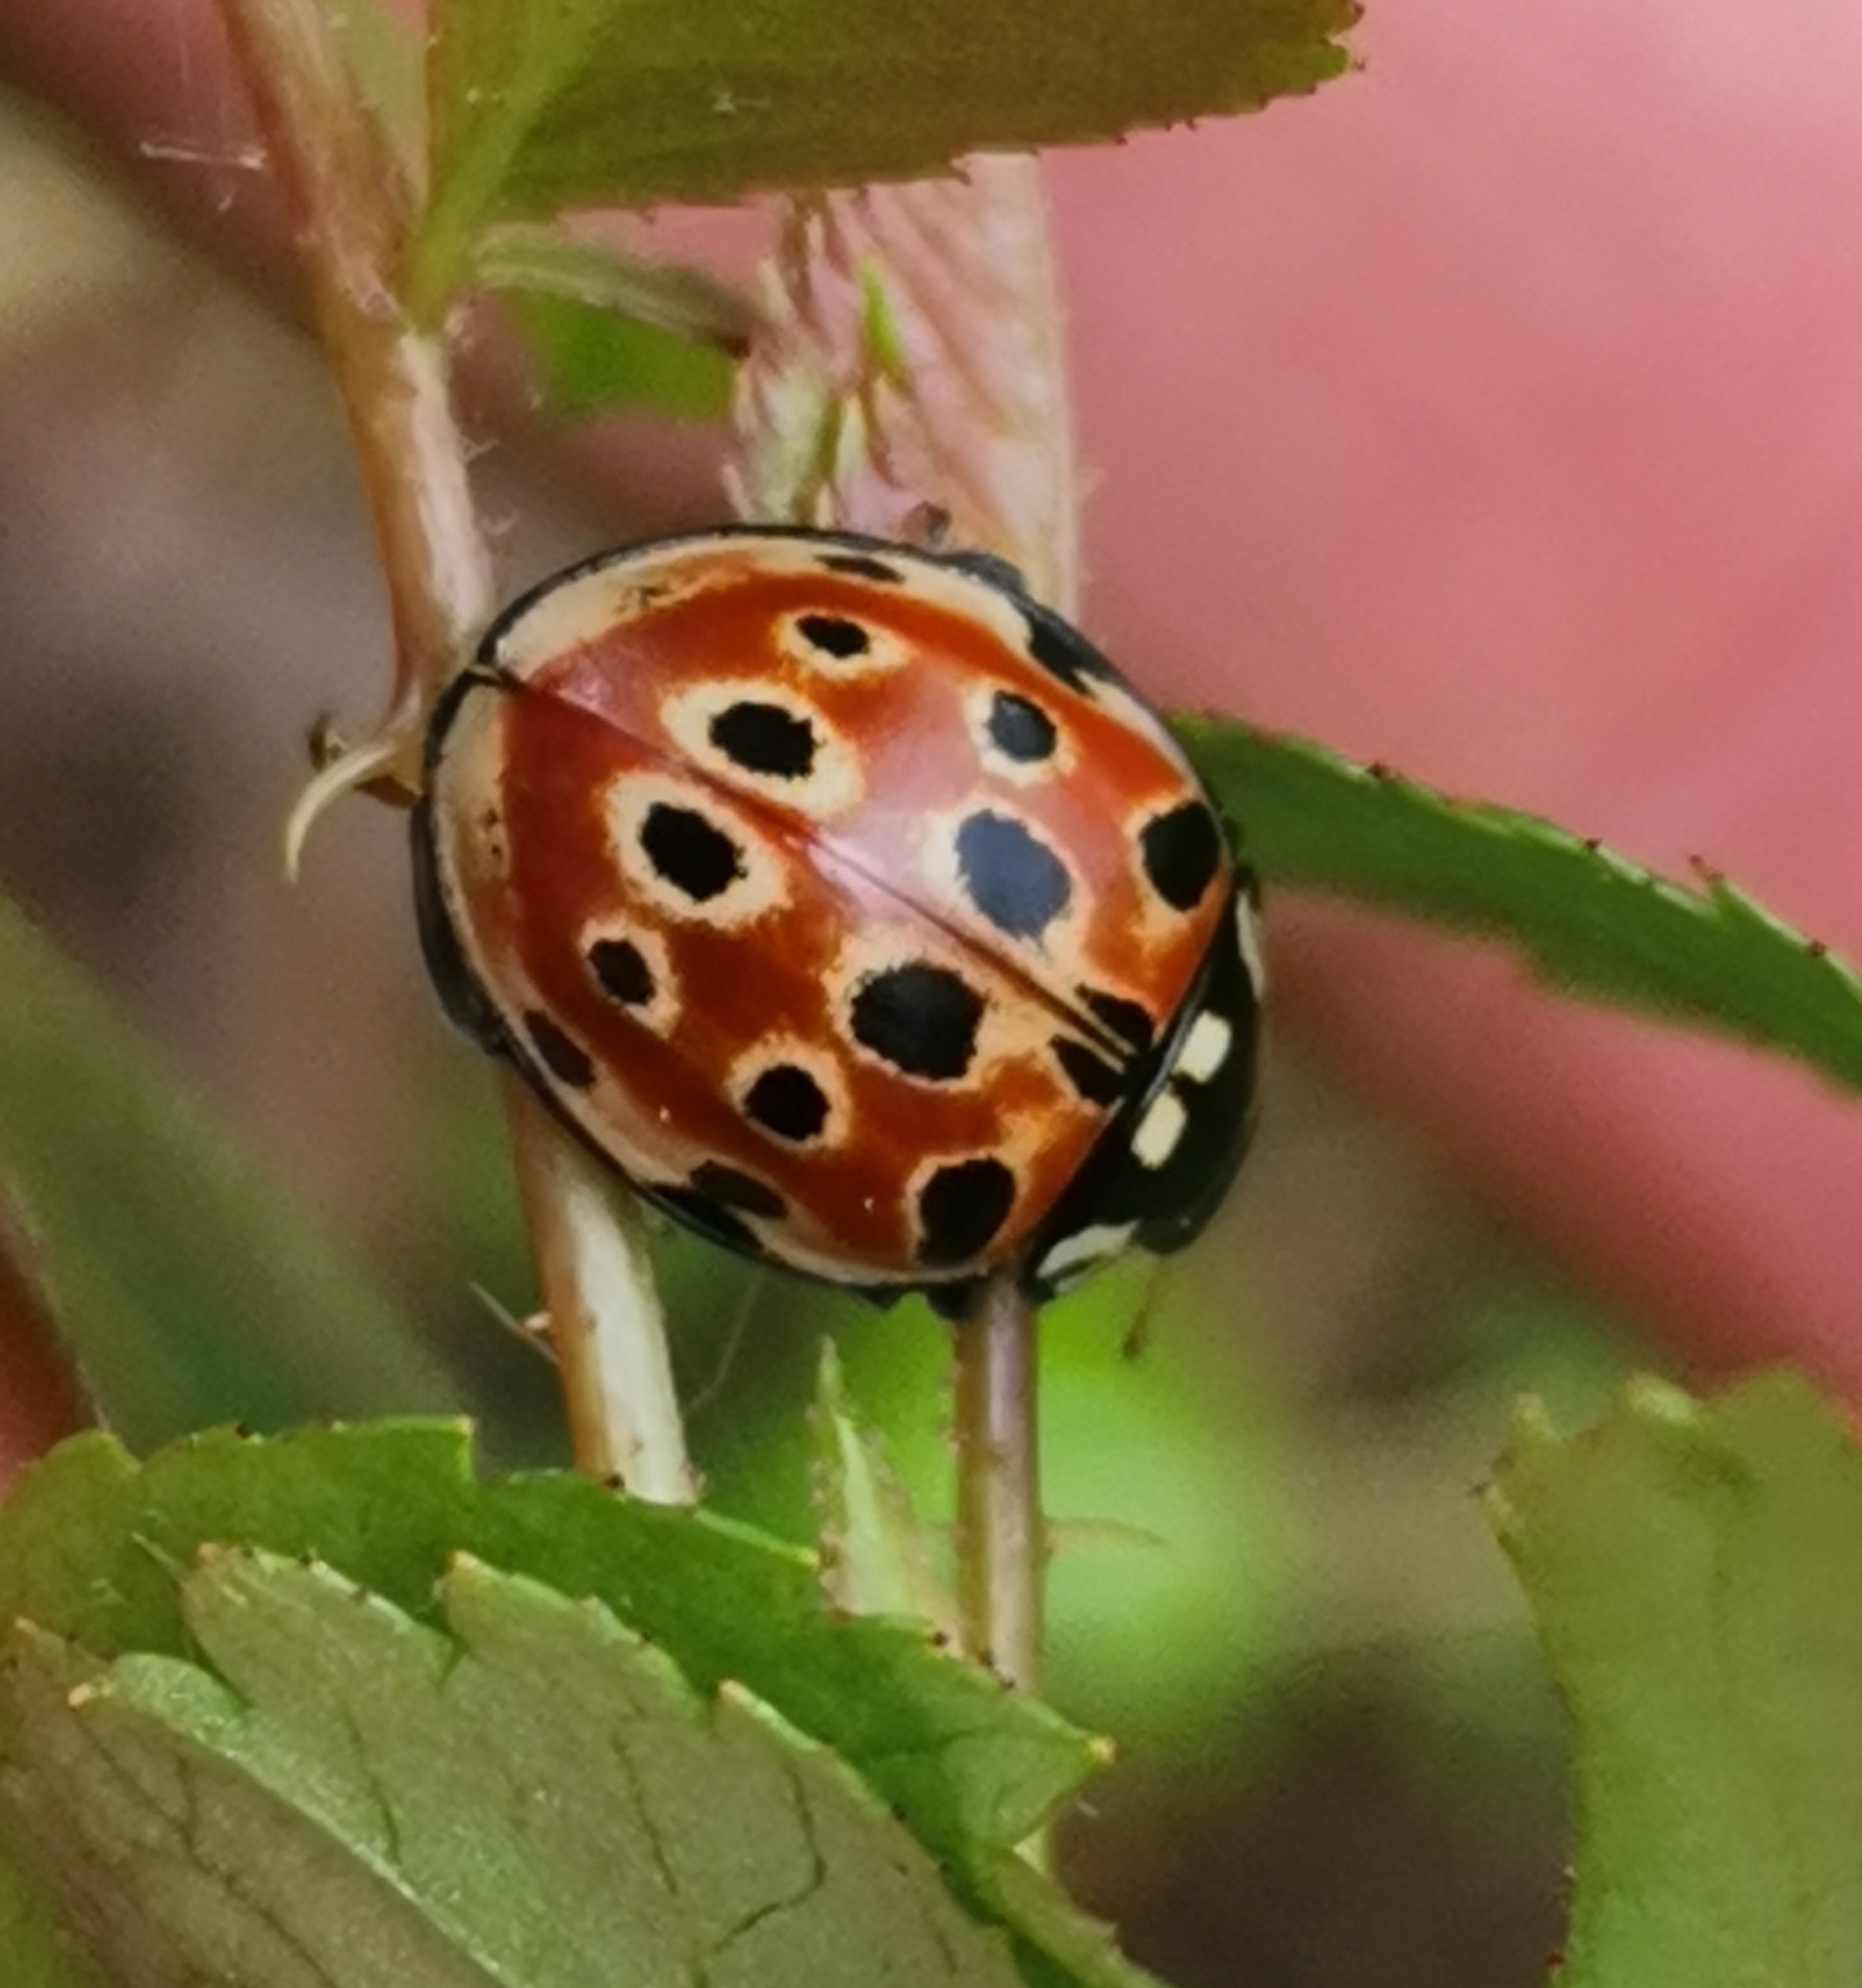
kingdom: Animalia
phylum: Arthropoda
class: Insecta
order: Coleoptera
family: Coccinellidae
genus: Anatis
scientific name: Anatis ocellata
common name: Eyed ladybird
